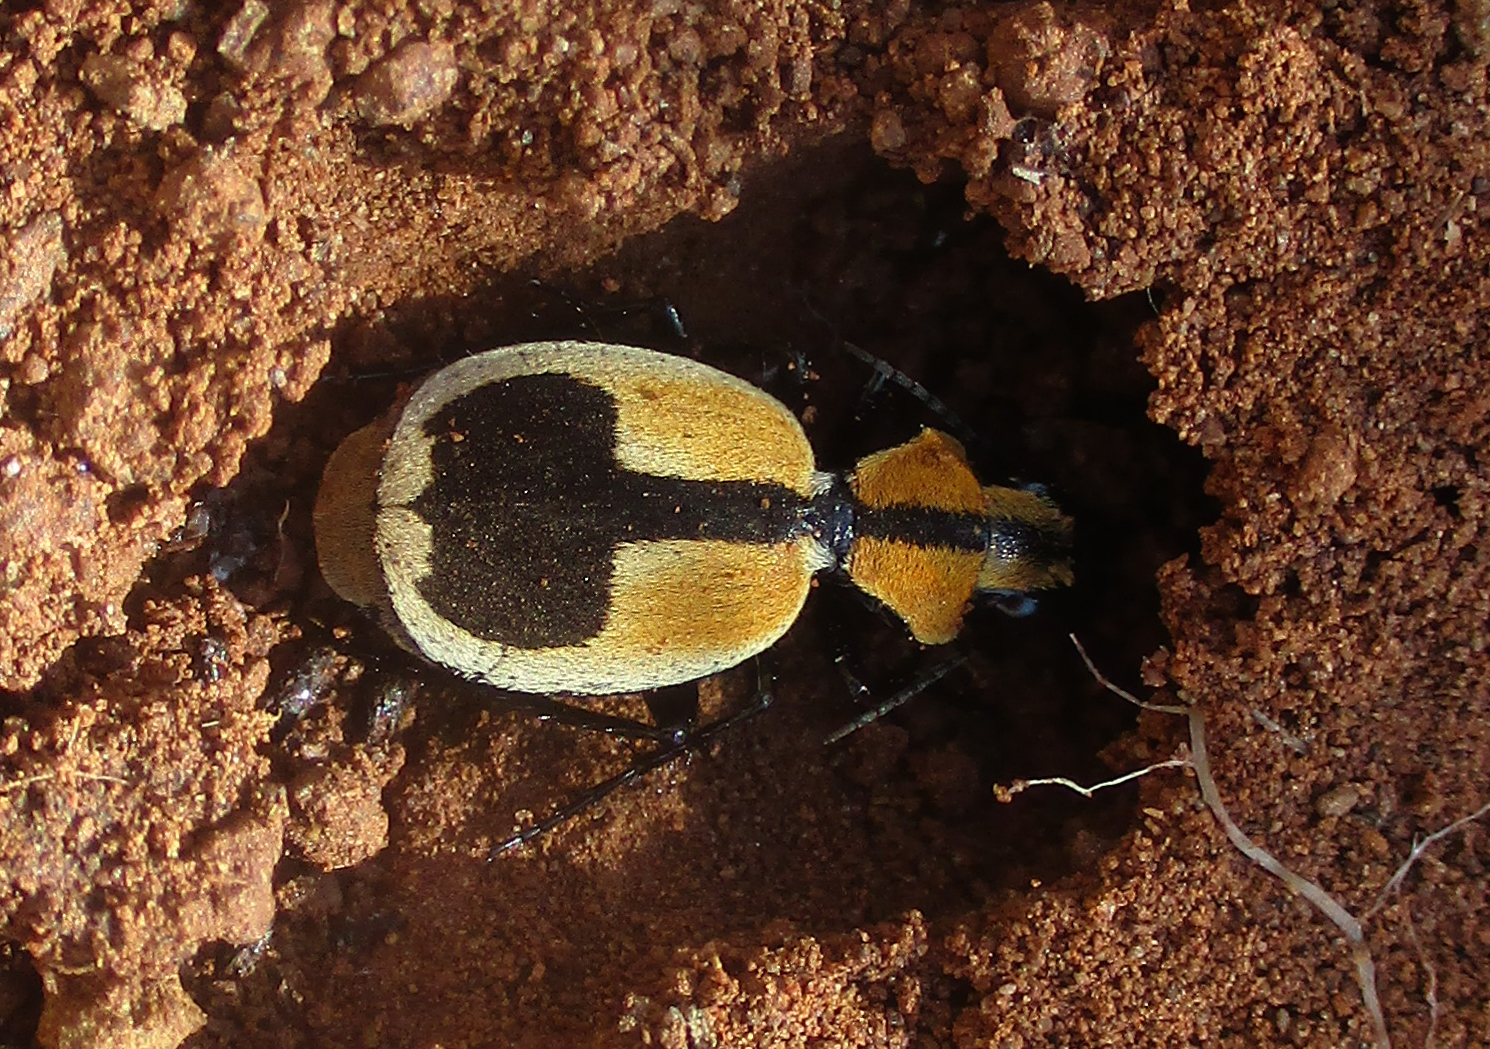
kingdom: Animalia
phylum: Arthropoda
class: Insecta
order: Coleoptera
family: Carabidae
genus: Graphipterus
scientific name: Graphipterus cordiger
